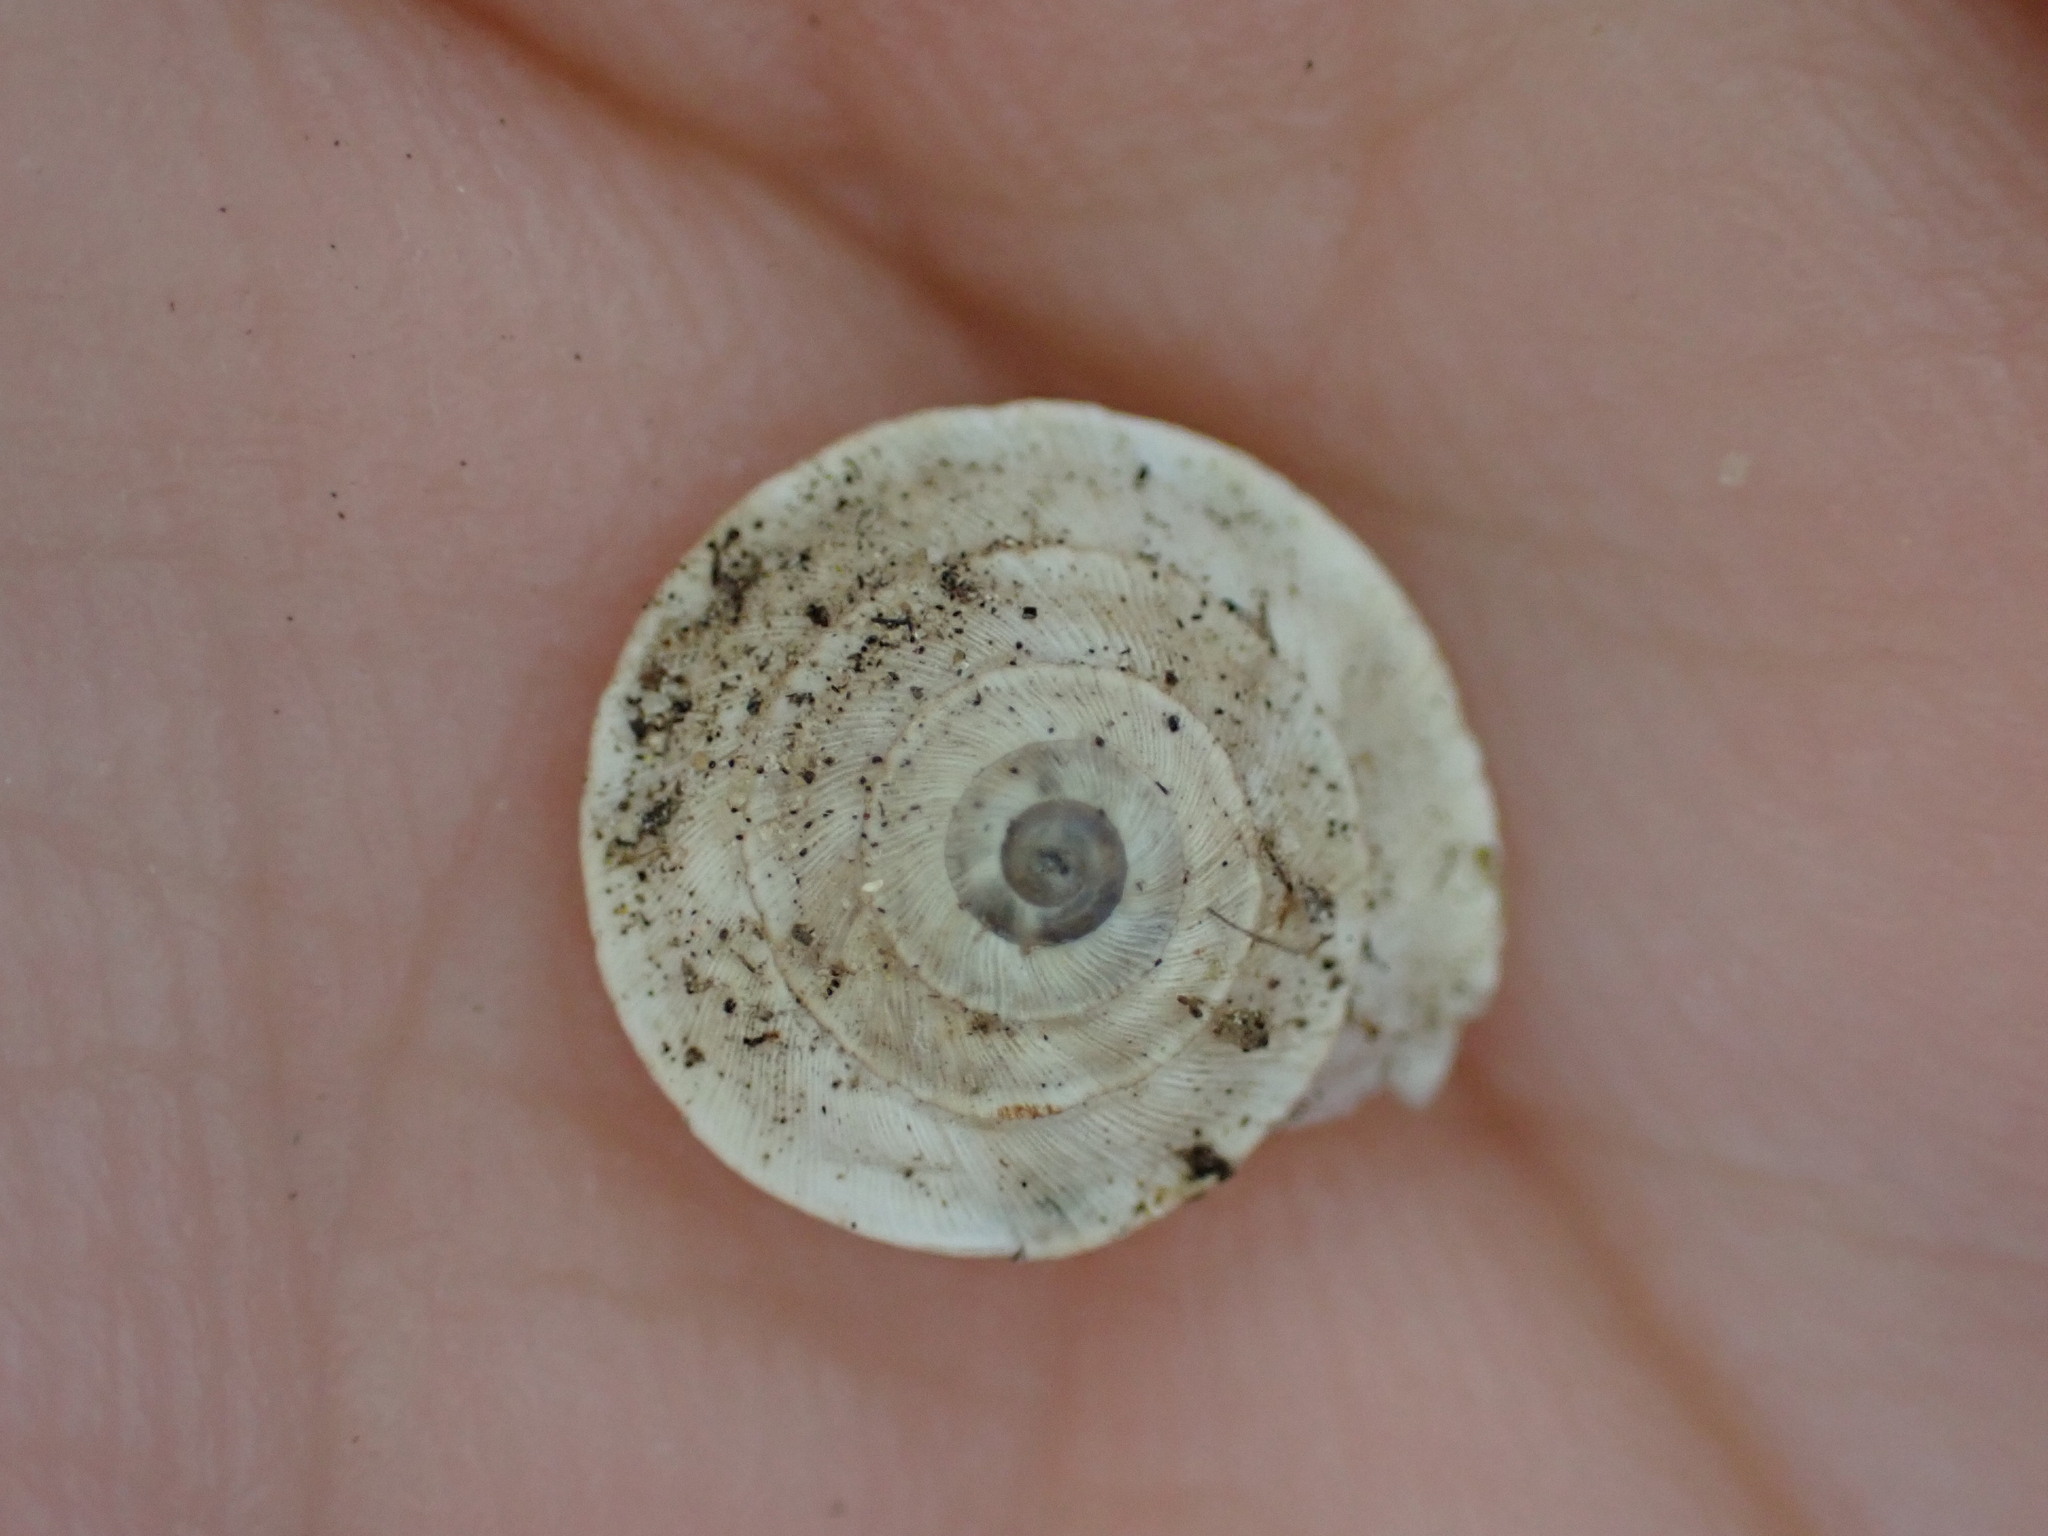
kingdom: Animalia
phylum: Mollusca
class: Gastropoda
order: Stylommatophora
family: Geomitridae
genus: Trochoidea
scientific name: Trochoidea elegans
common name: Elegant helicellid
